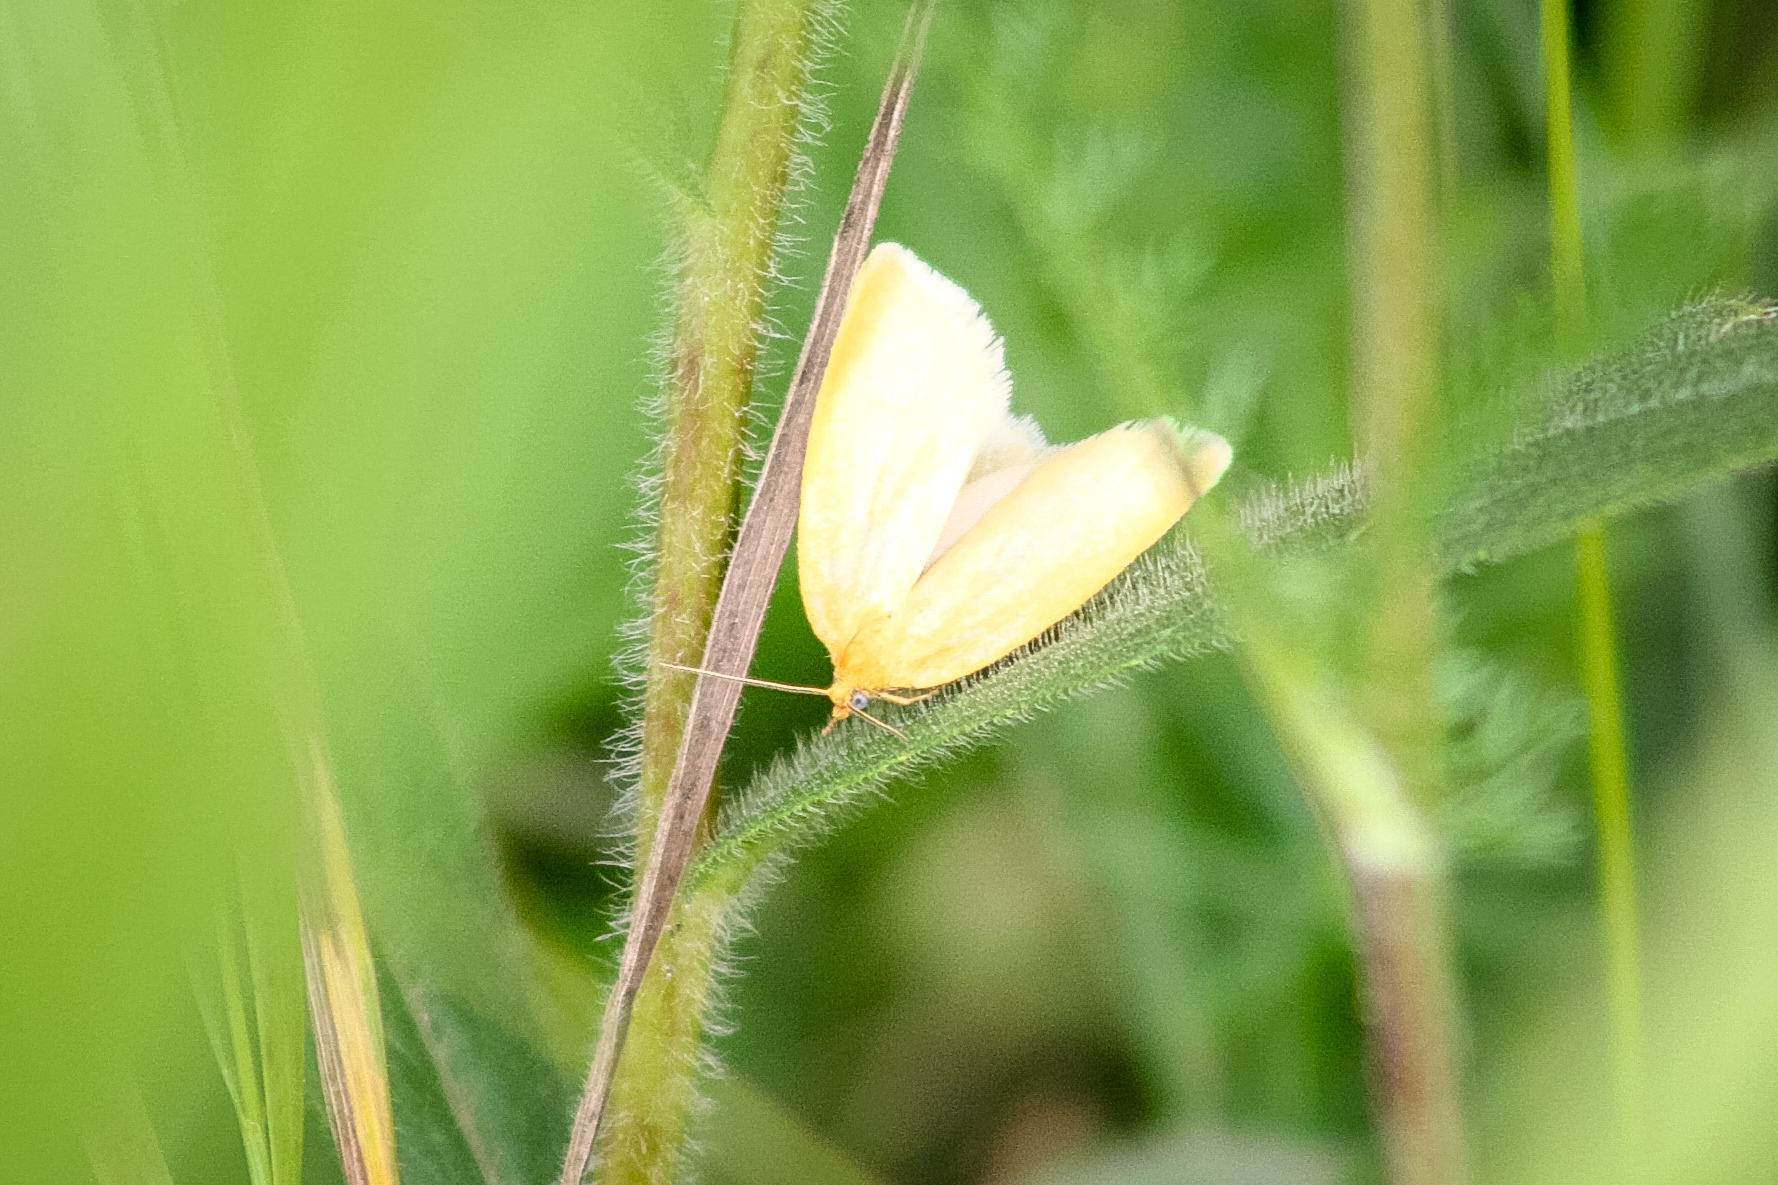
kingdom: Animalia
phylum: Arthropoda
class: Insecta
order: Lepidoptera
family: Tortricidae
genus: Aphelia
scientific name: Aphelia Zelotherses paleana
